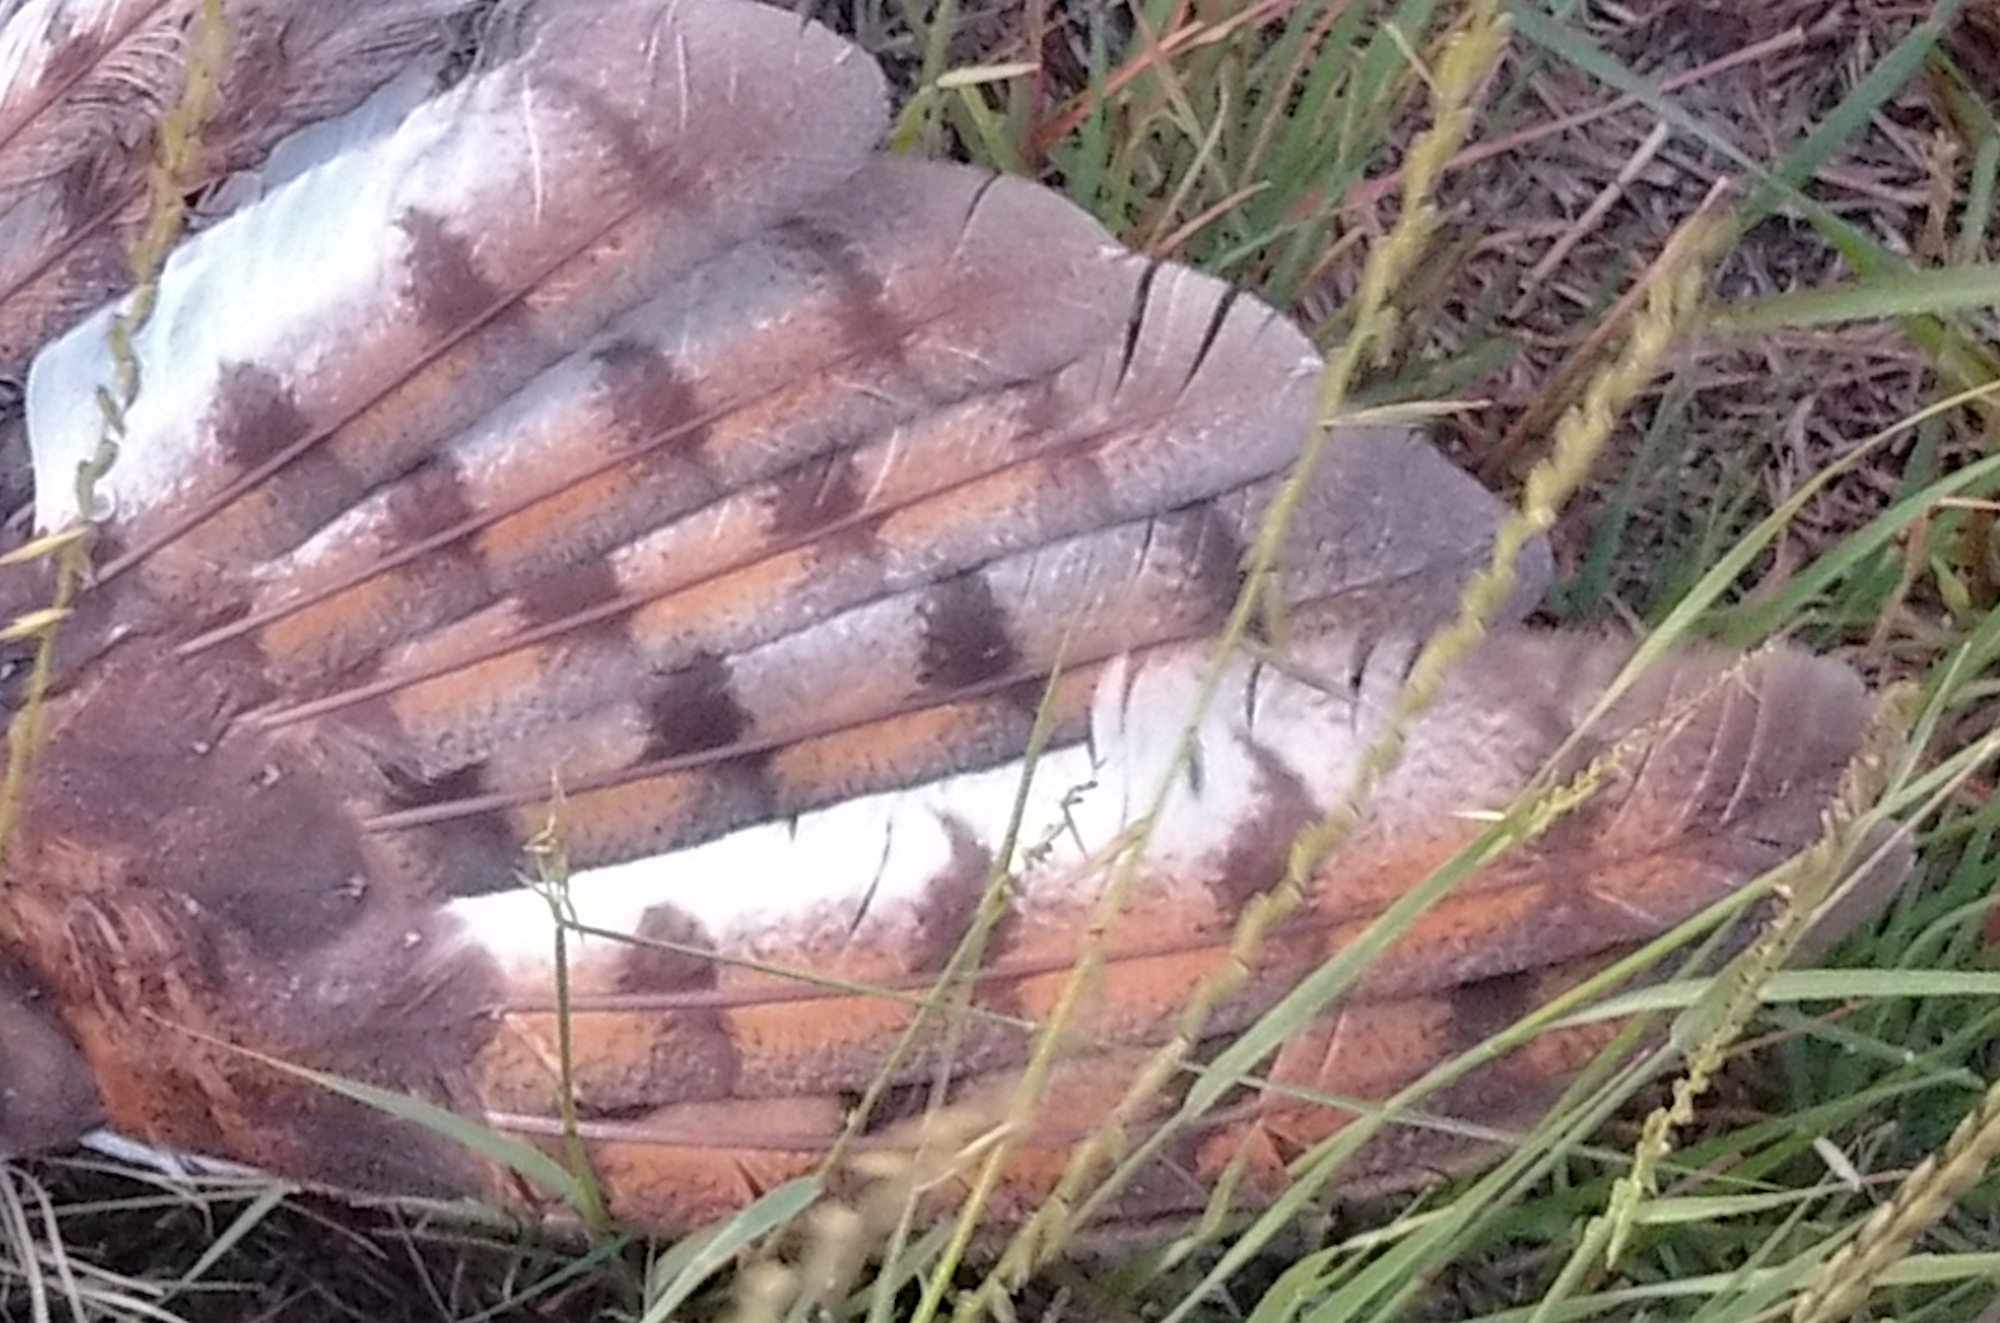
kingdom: Animalia
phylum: Chordata
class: Aves
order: Strigiformes
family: Tytonidae
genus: Tyto
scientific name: Tyto alba
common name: Barn owl
